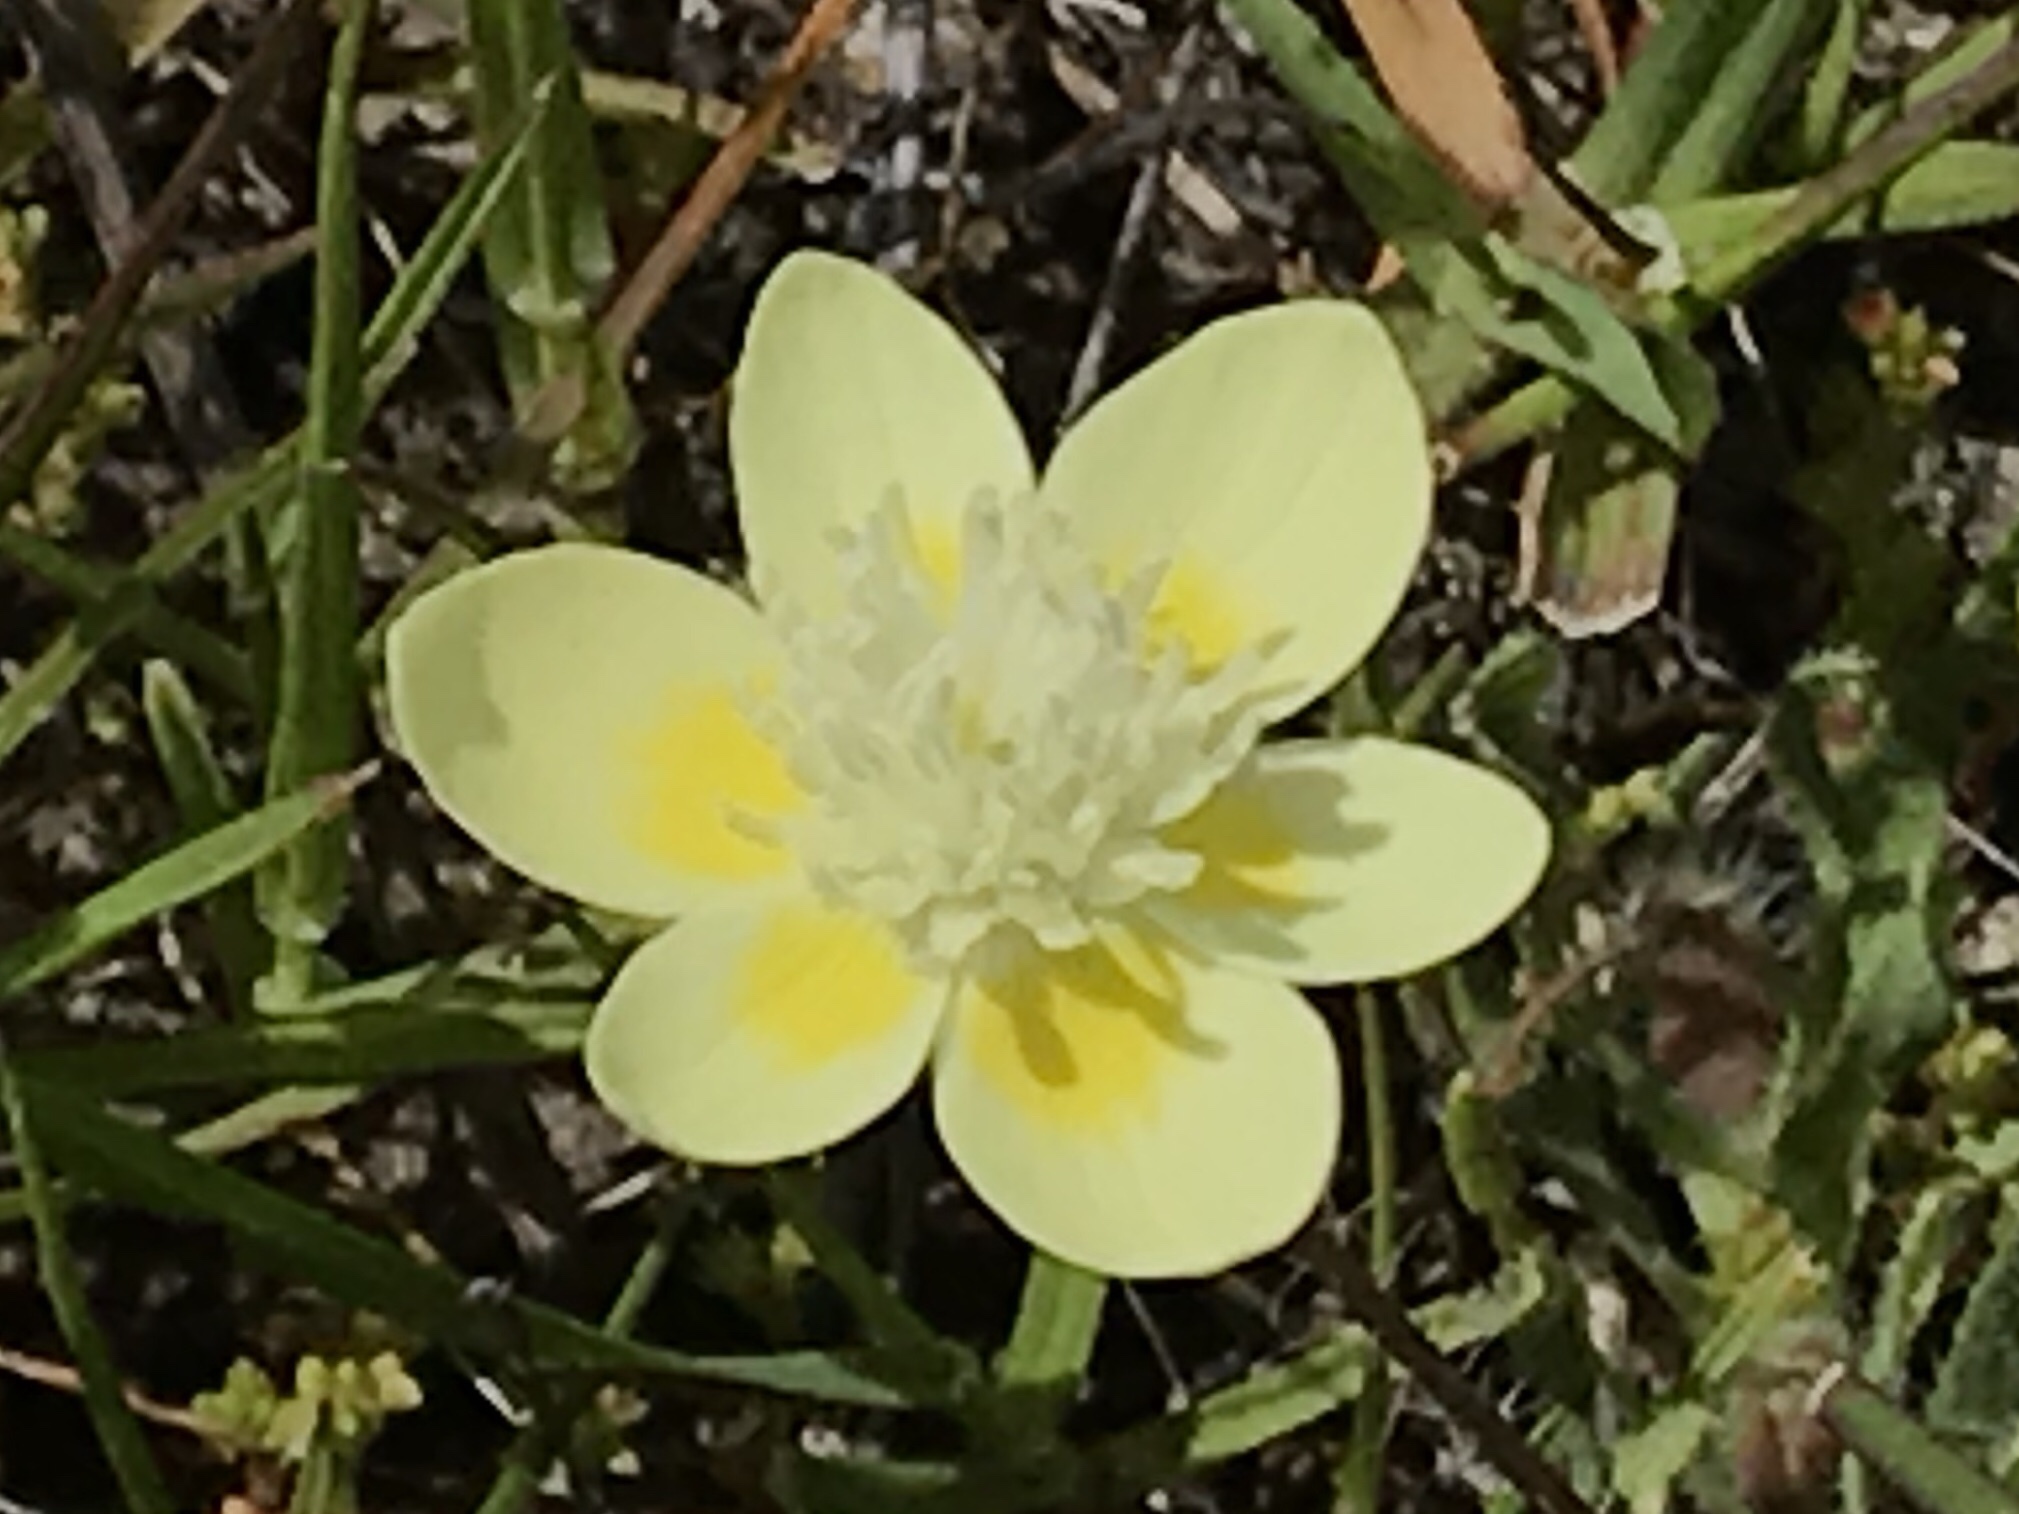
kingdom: Plantae
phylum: Tracheophyta
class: Magnoliopsida
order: Ranunculales
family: Papaveraceae
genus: Platystemon
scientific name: Platystemon californicus
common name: Cream-cups
